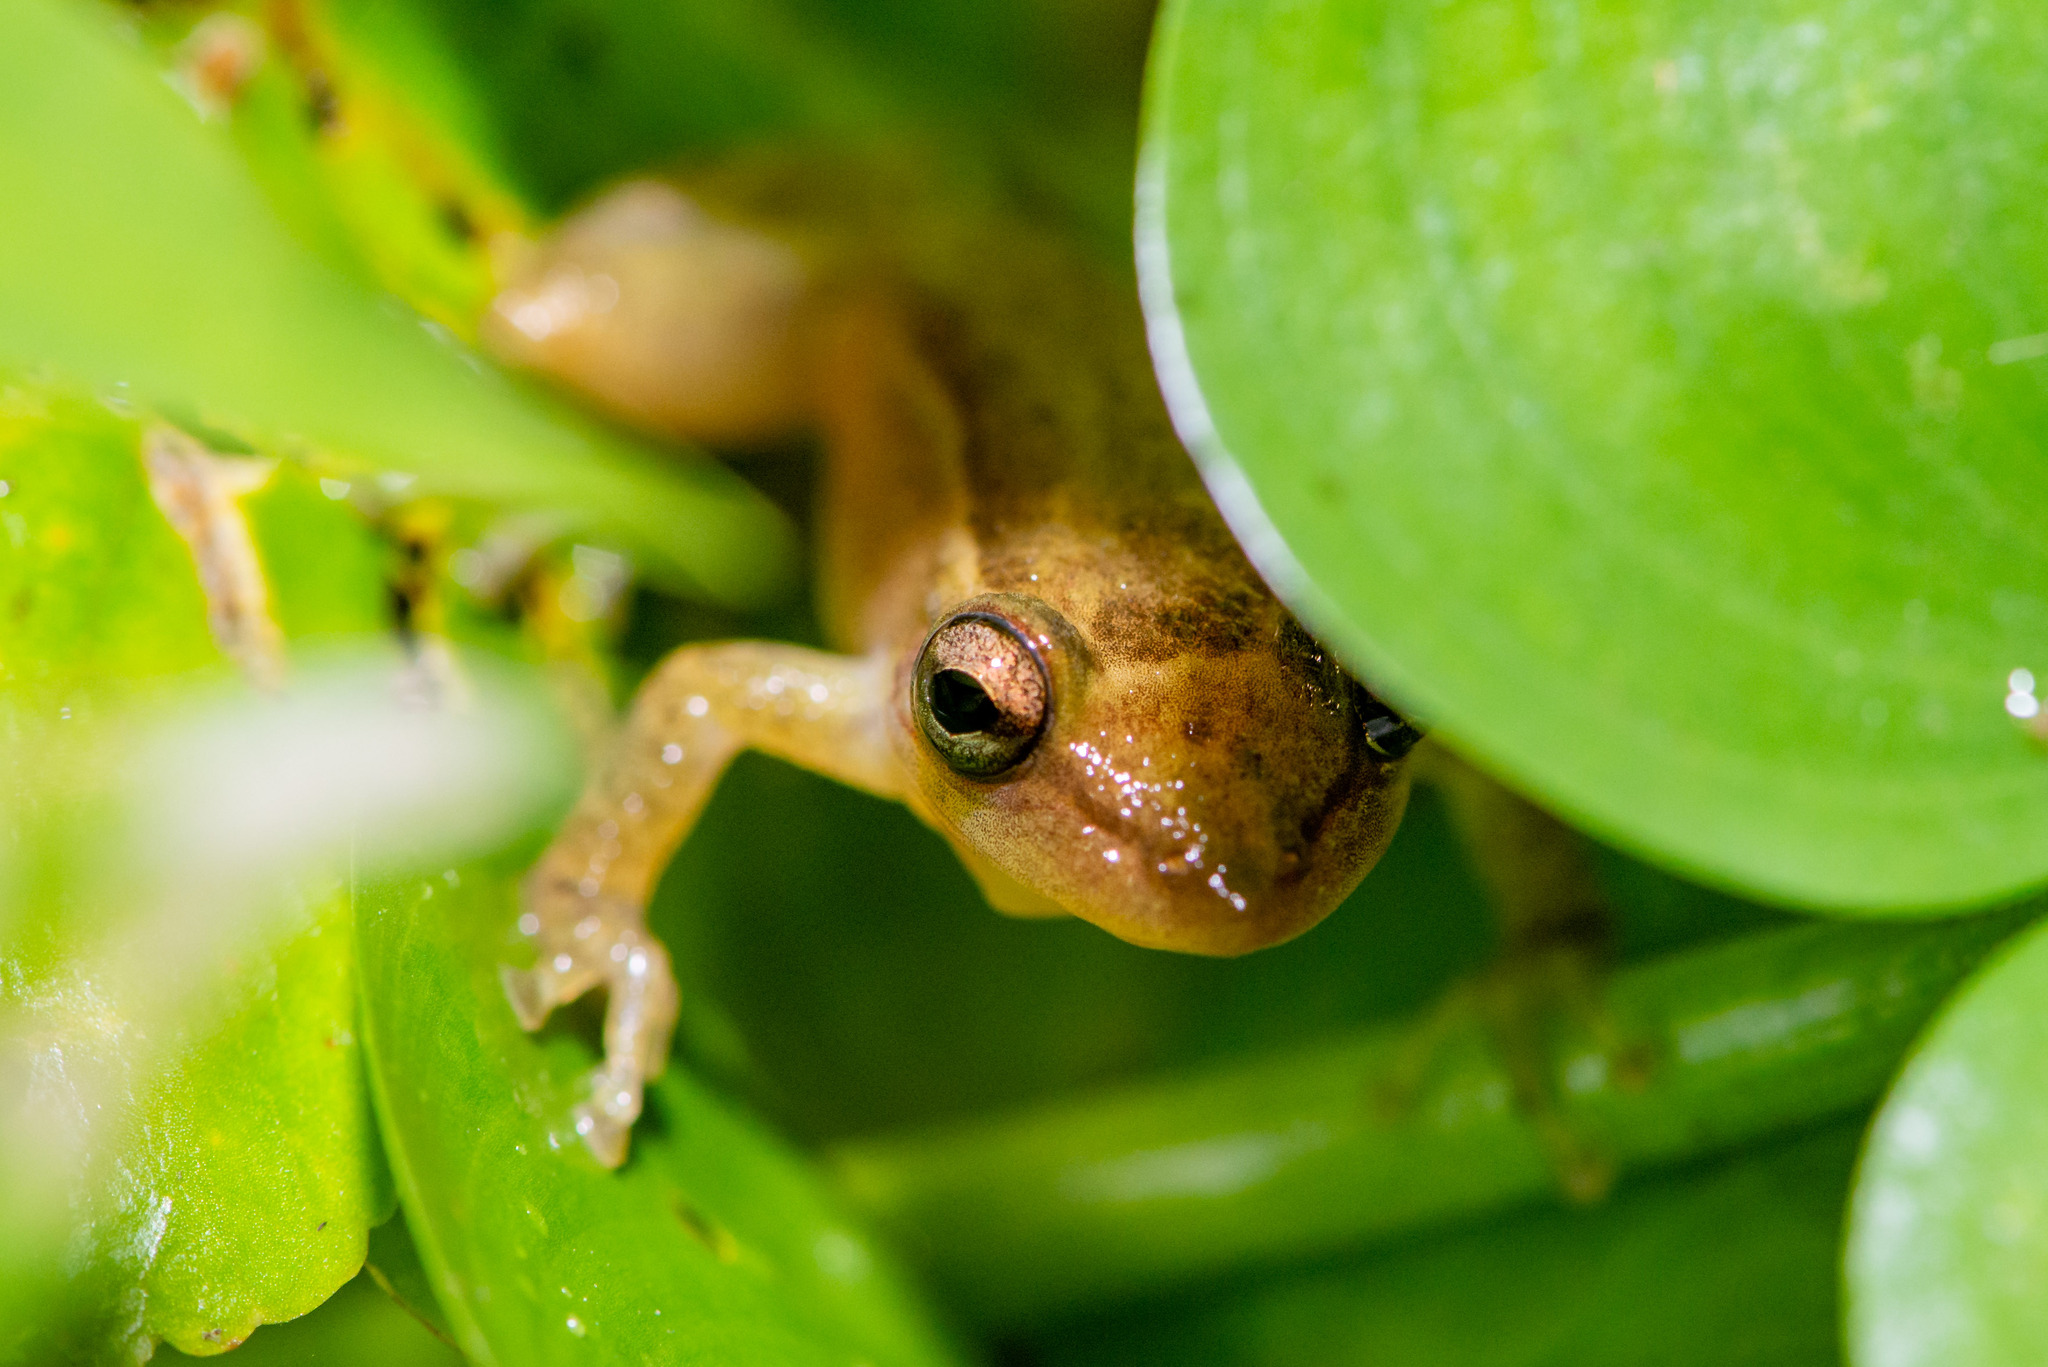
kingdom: Animalia
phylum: Chordata
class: Amphibia
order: Anura
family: Hylidae
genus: Scinax
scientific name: Scinax tymbamirim
